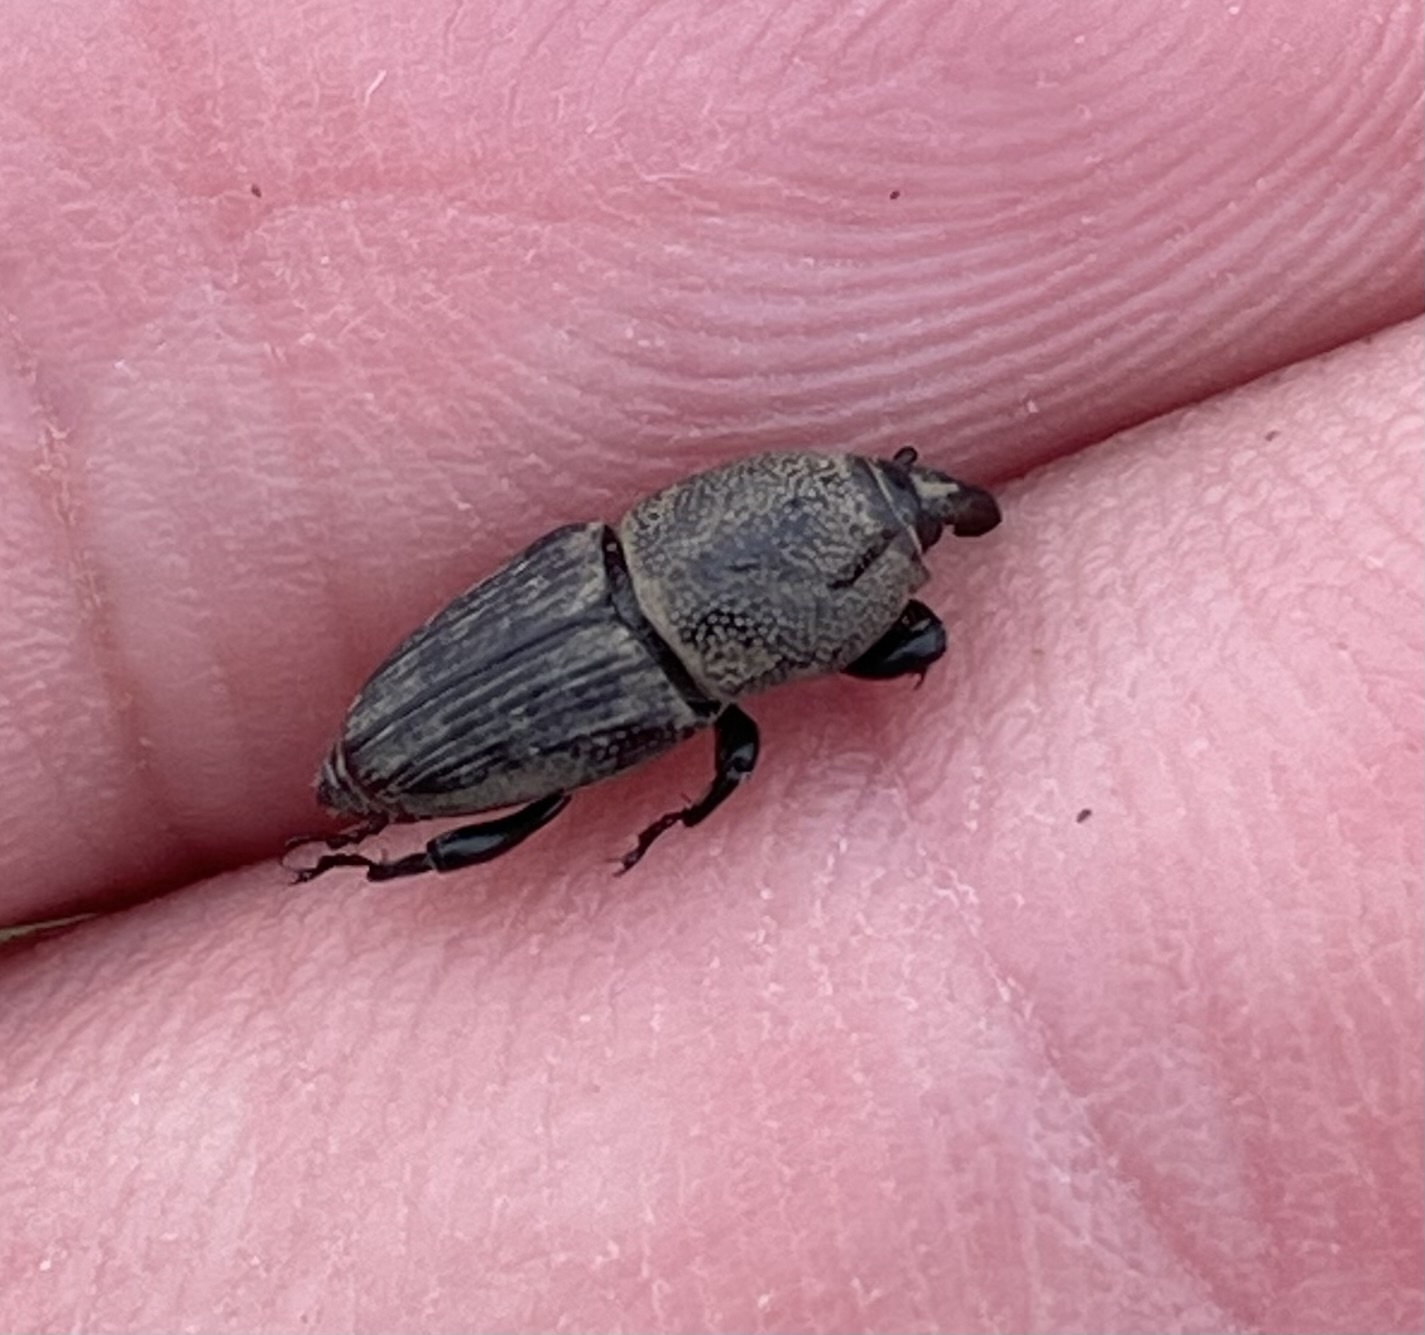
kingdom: Animalia
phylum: Arthropoda
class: Insecta
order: Coleoptera
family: Dryophthoridae
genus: Sphenophorus
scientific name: Sphenophorus coesifrons
